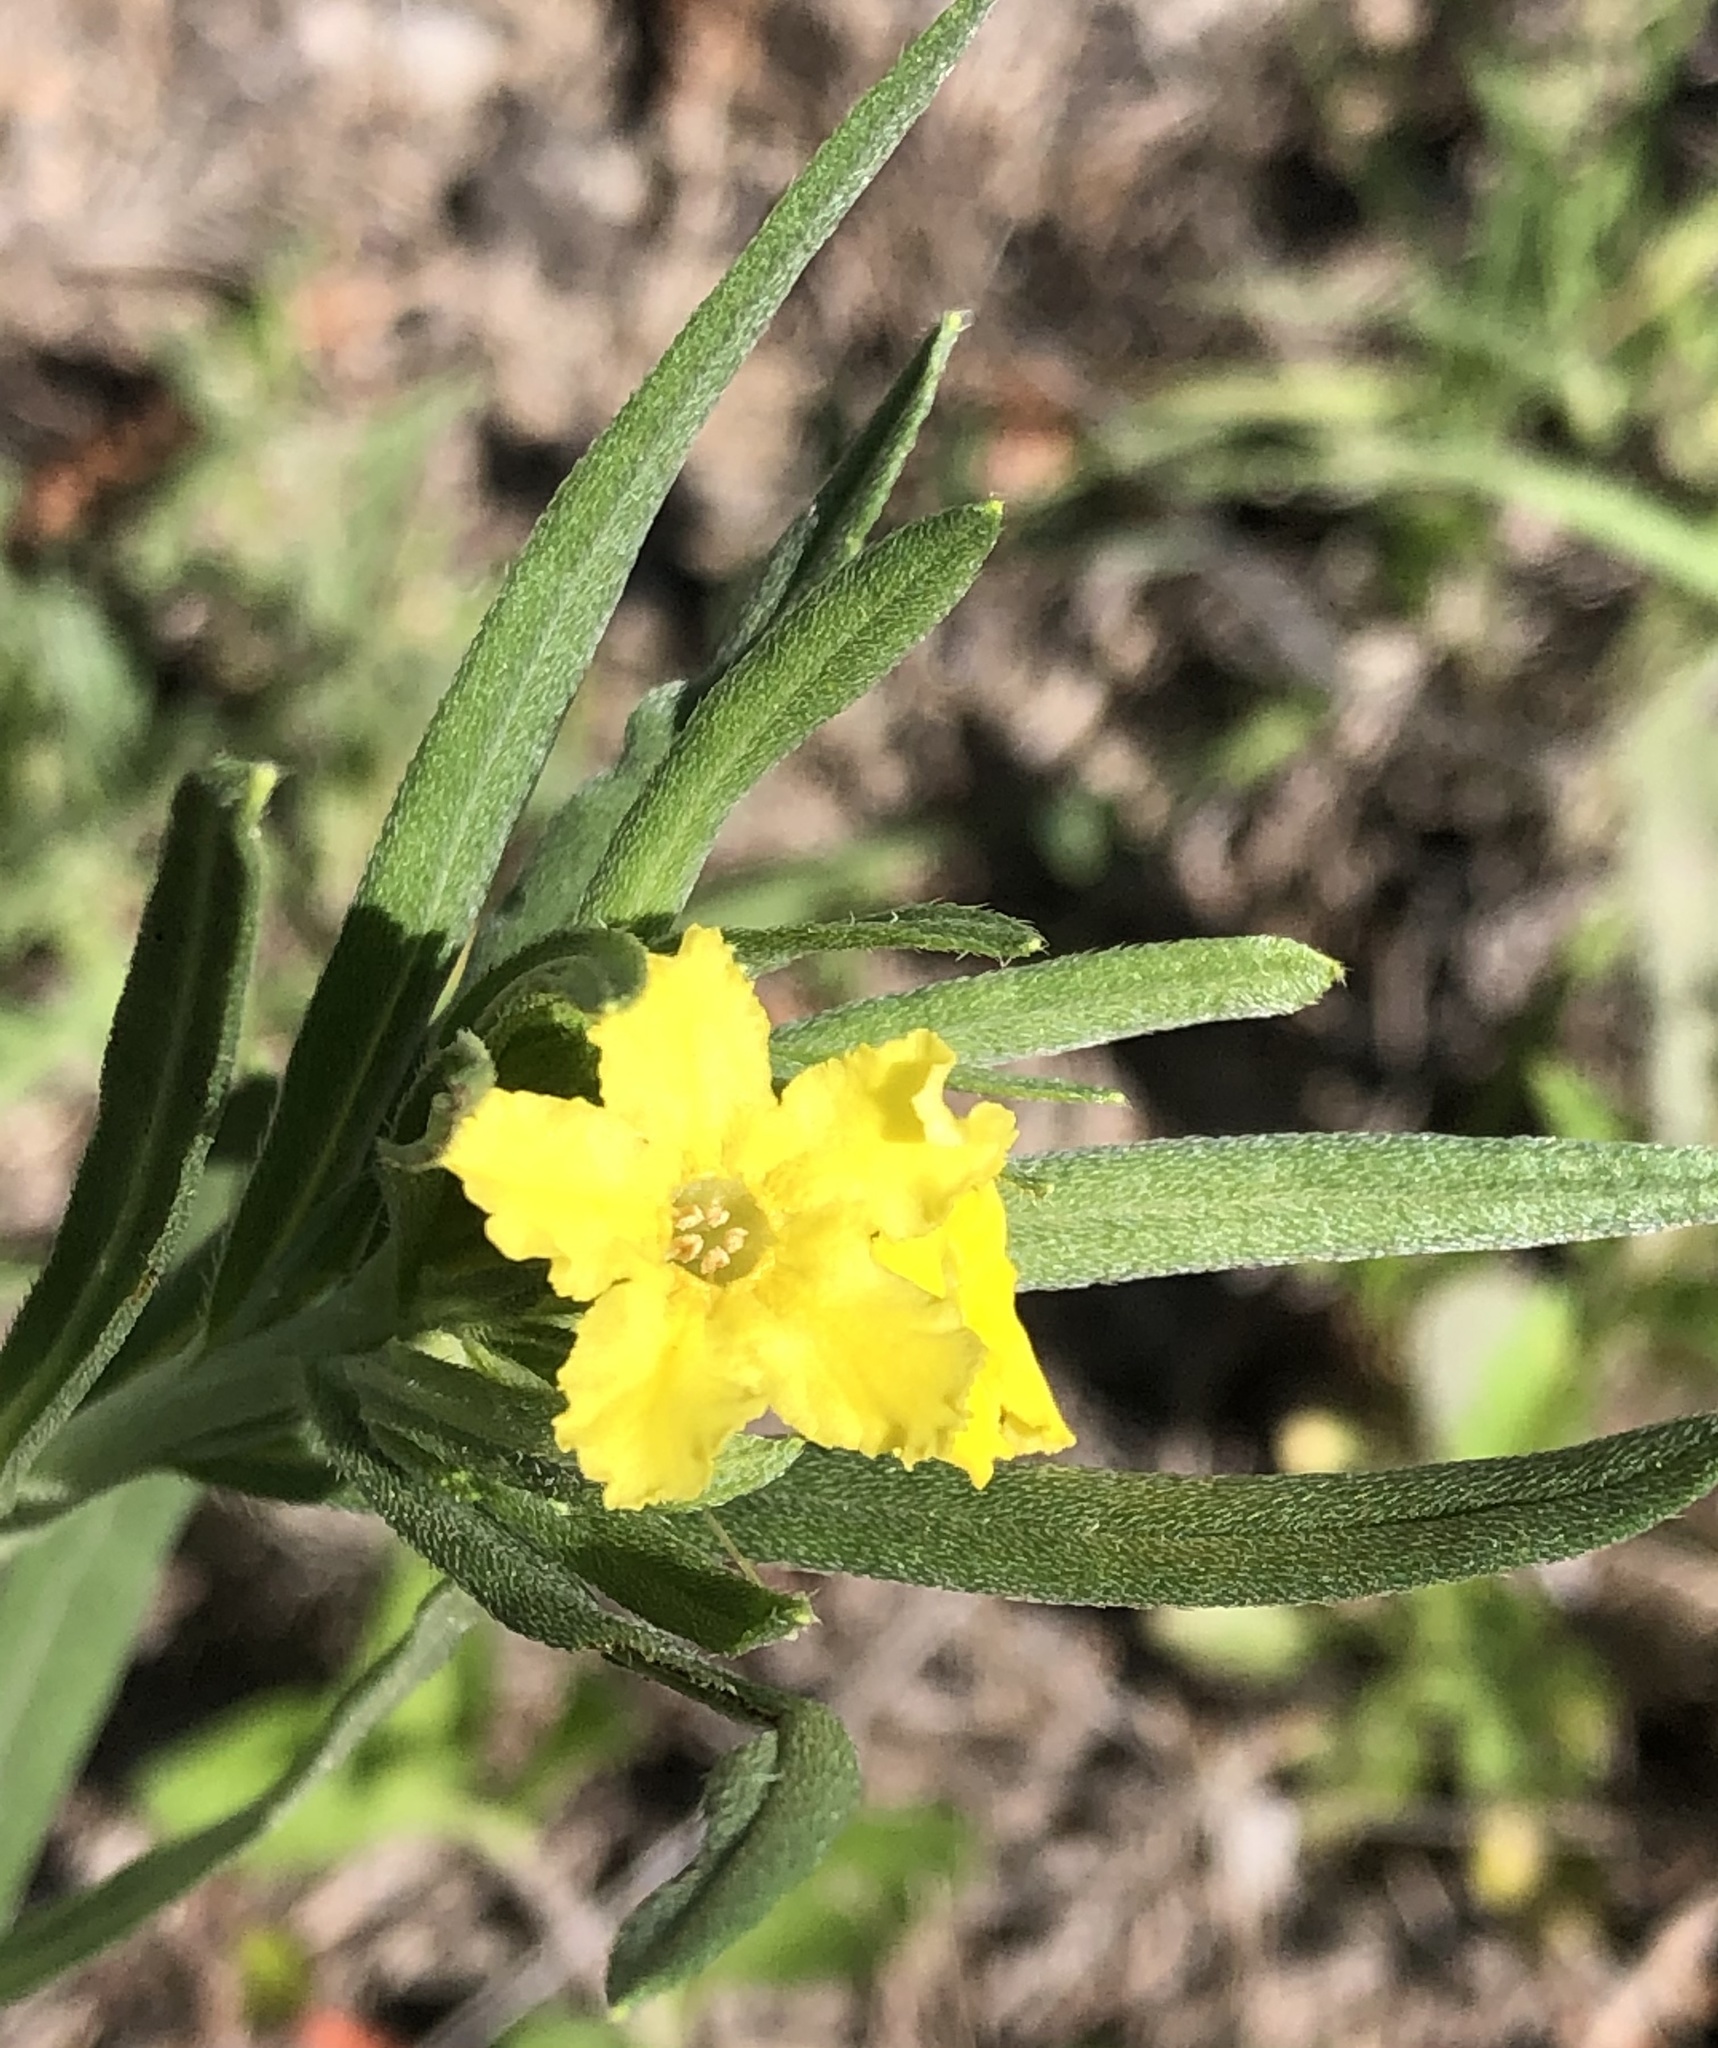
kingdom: Plantae
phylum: Tracheophyta
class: Magnoliopsida
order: Boraginales
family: Boraginaceae
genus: Lithospermum
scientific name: Lithospermum incisum
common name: Fringed gromwell
